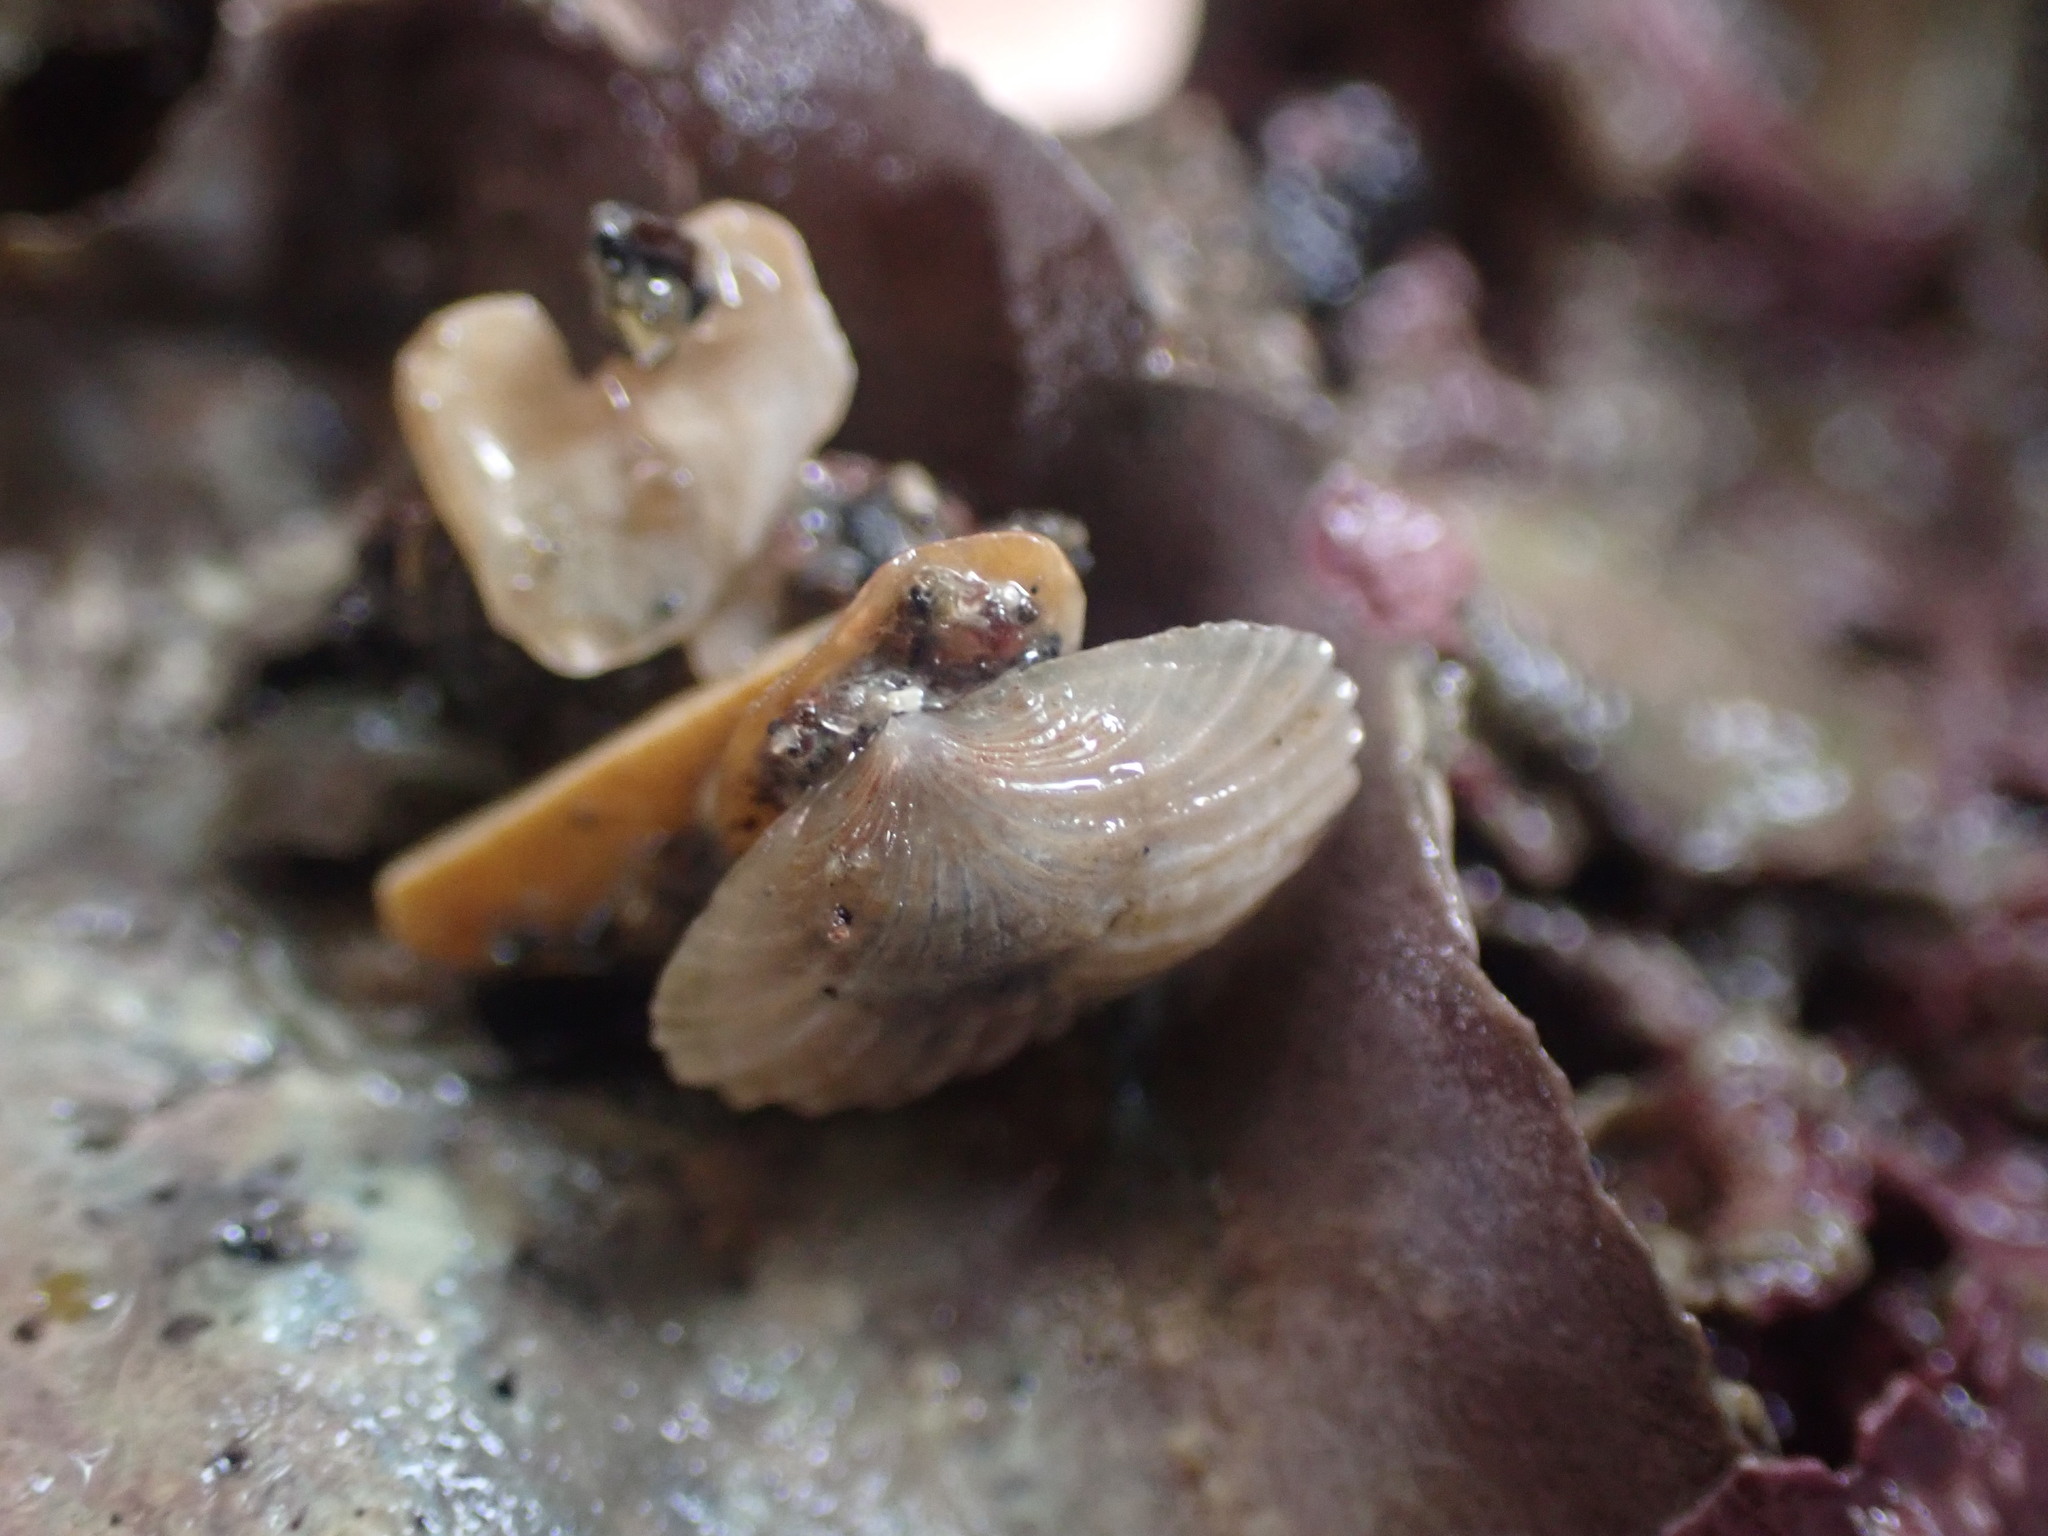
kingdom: Animalia
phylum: Mollusca
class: Bivalvia
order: Galeommatida
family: Lasaeidae
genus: Myllita
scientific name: Myllita stowei
